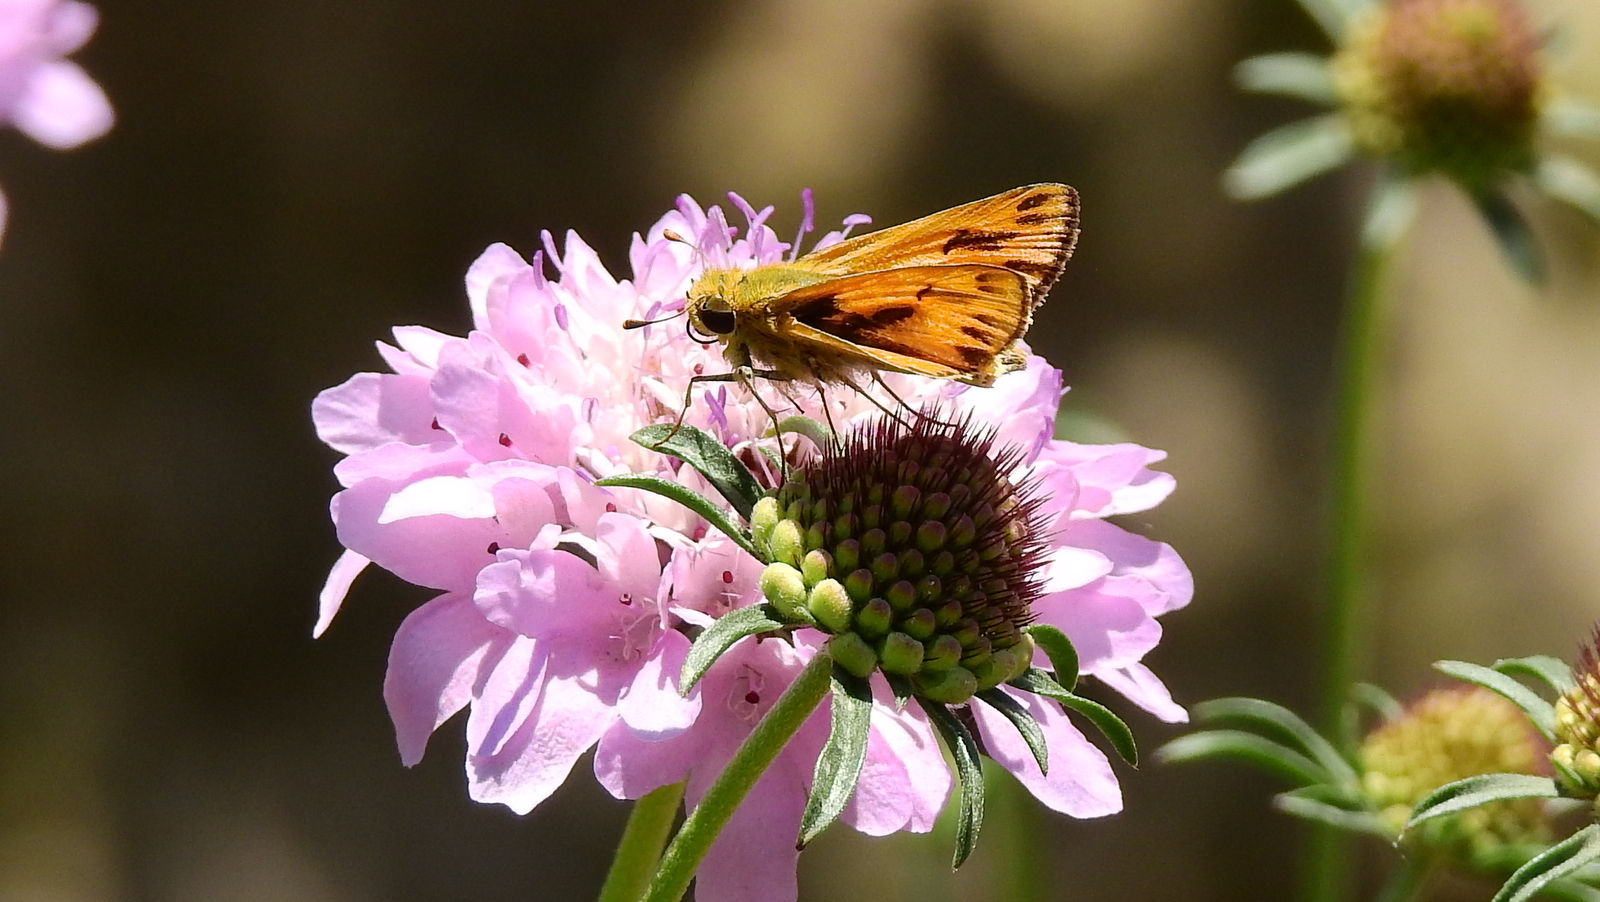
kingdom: Animalia
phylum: Arthropoda
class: Insecta
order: Lepidoptera
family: Hesperiidae
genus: Hylephila
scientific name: Hylephila phyleus
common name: Fiery skipper
